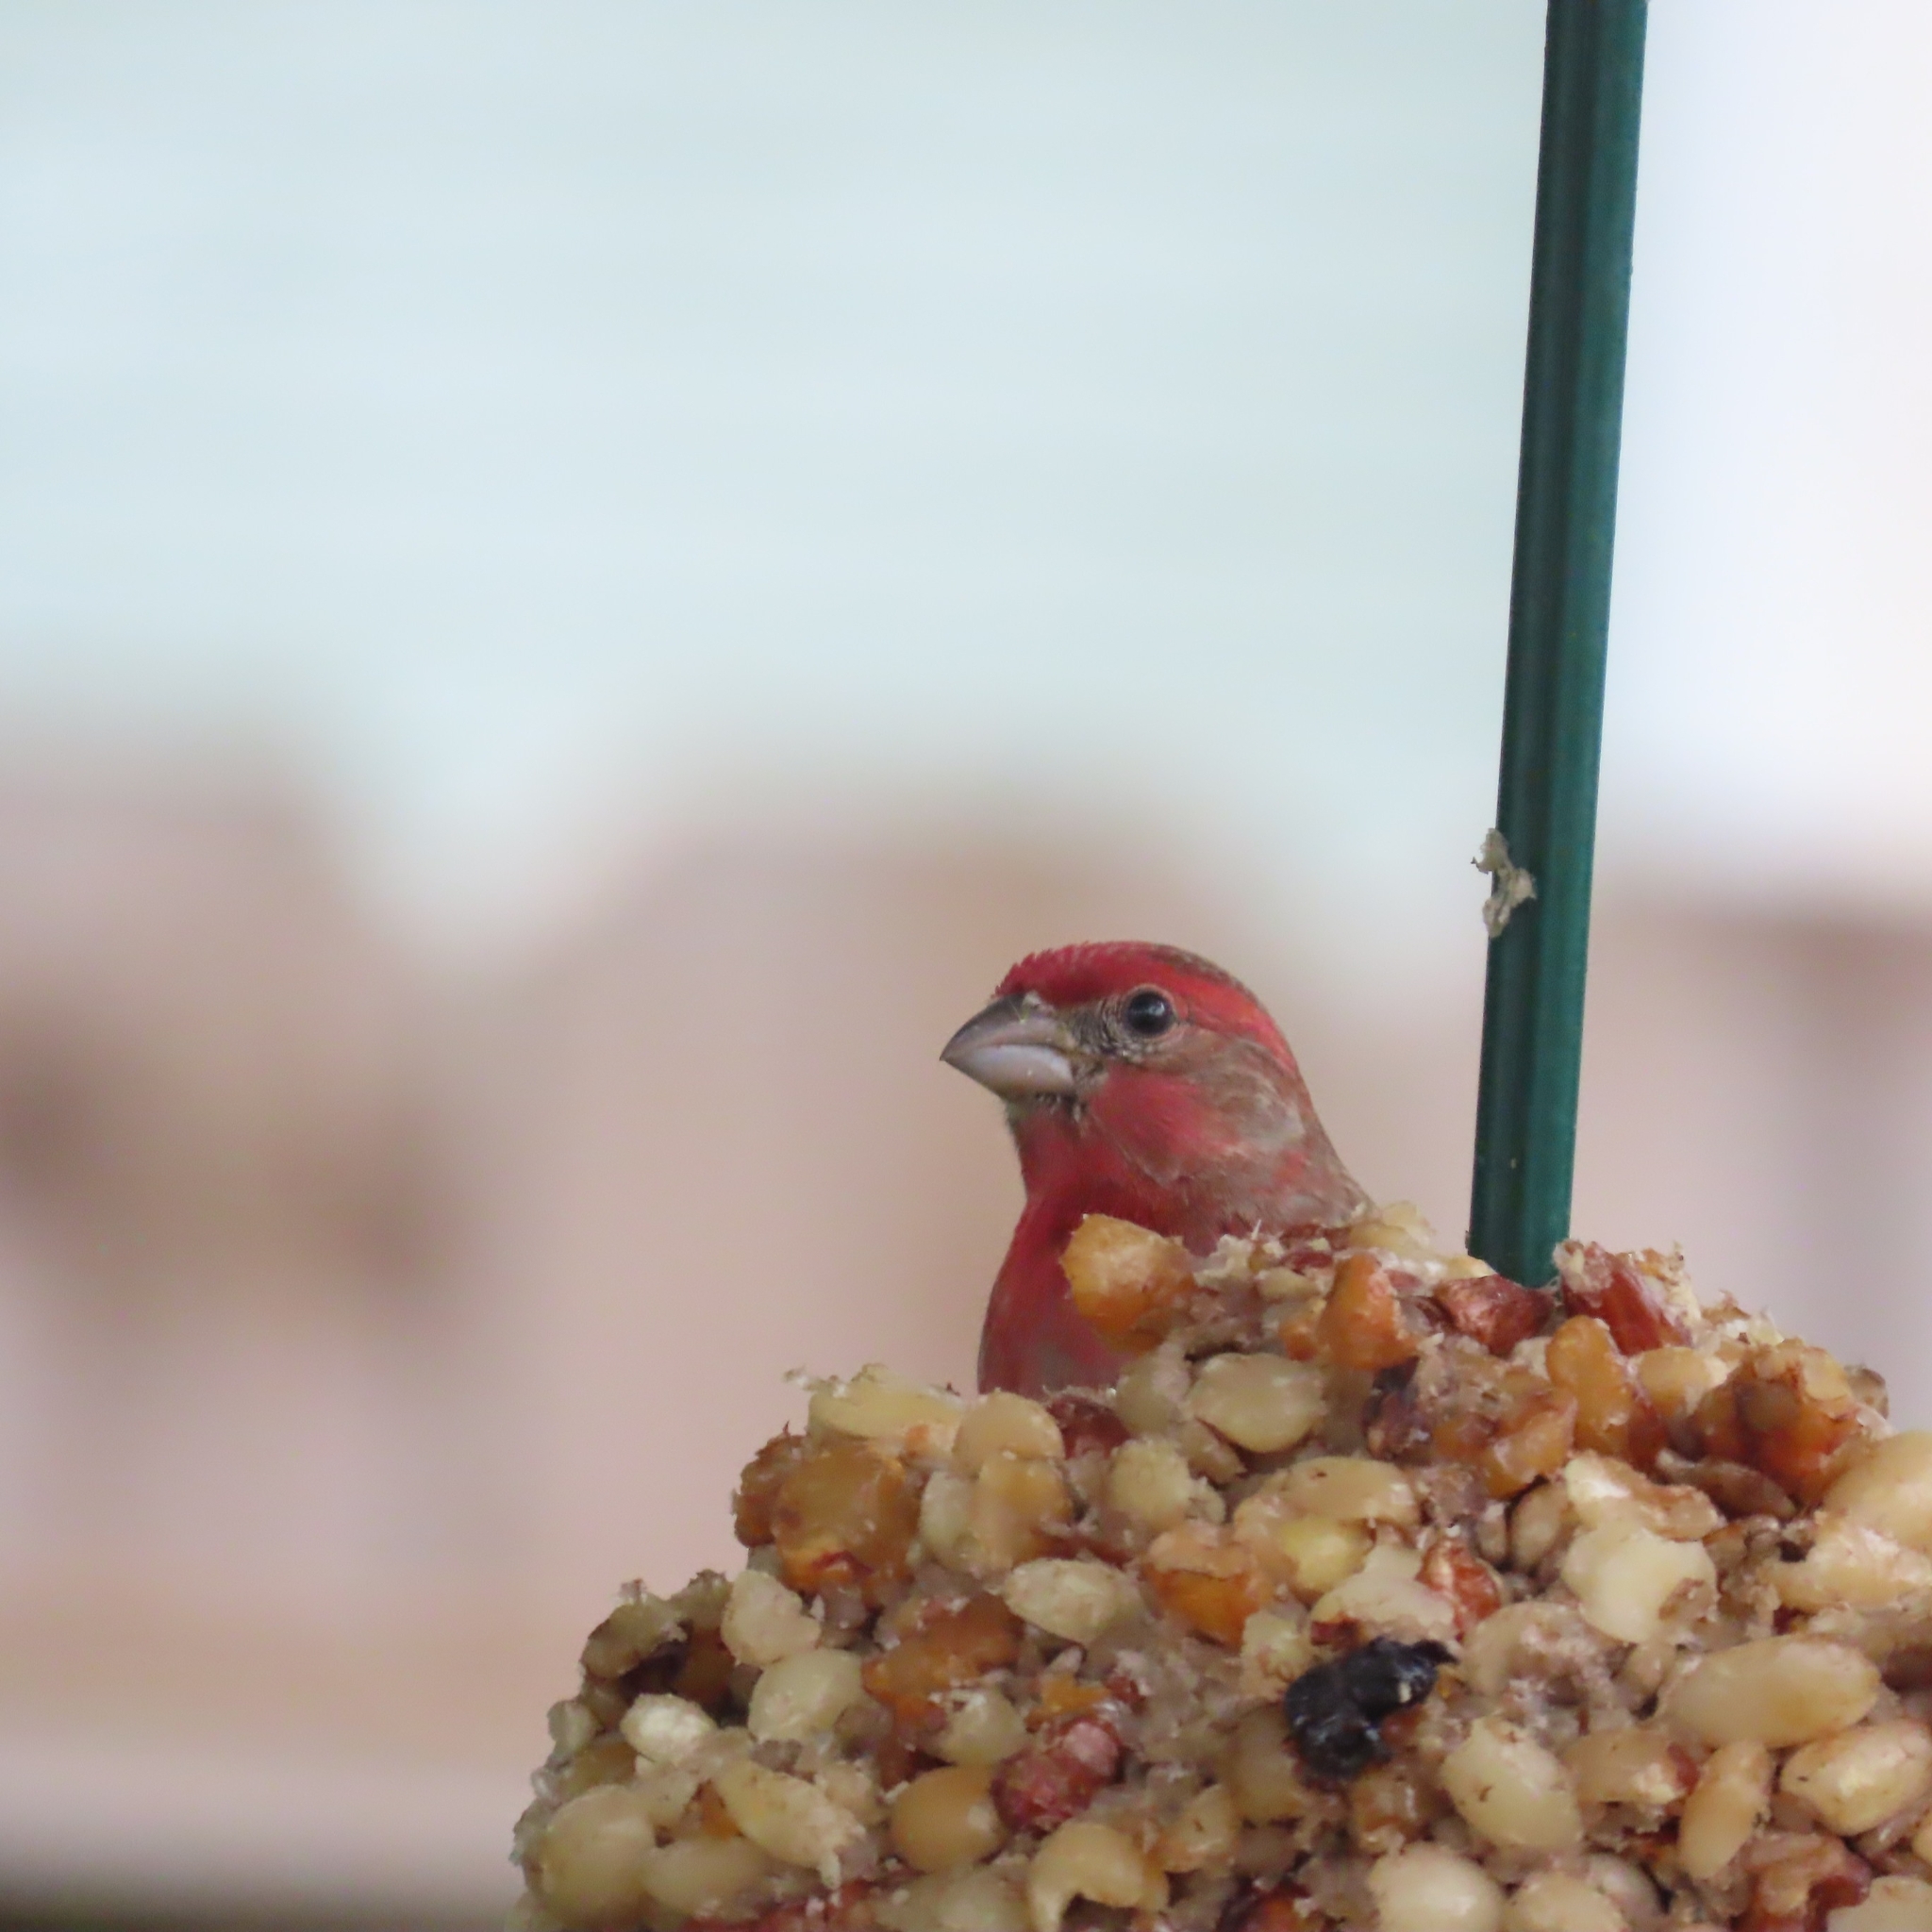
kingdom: Animalia
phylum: Chordata
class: Aves
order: Passeriformes
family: Fringillidae
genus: Haemorhous
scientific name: Haemorhous mexicanus
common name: House finch
